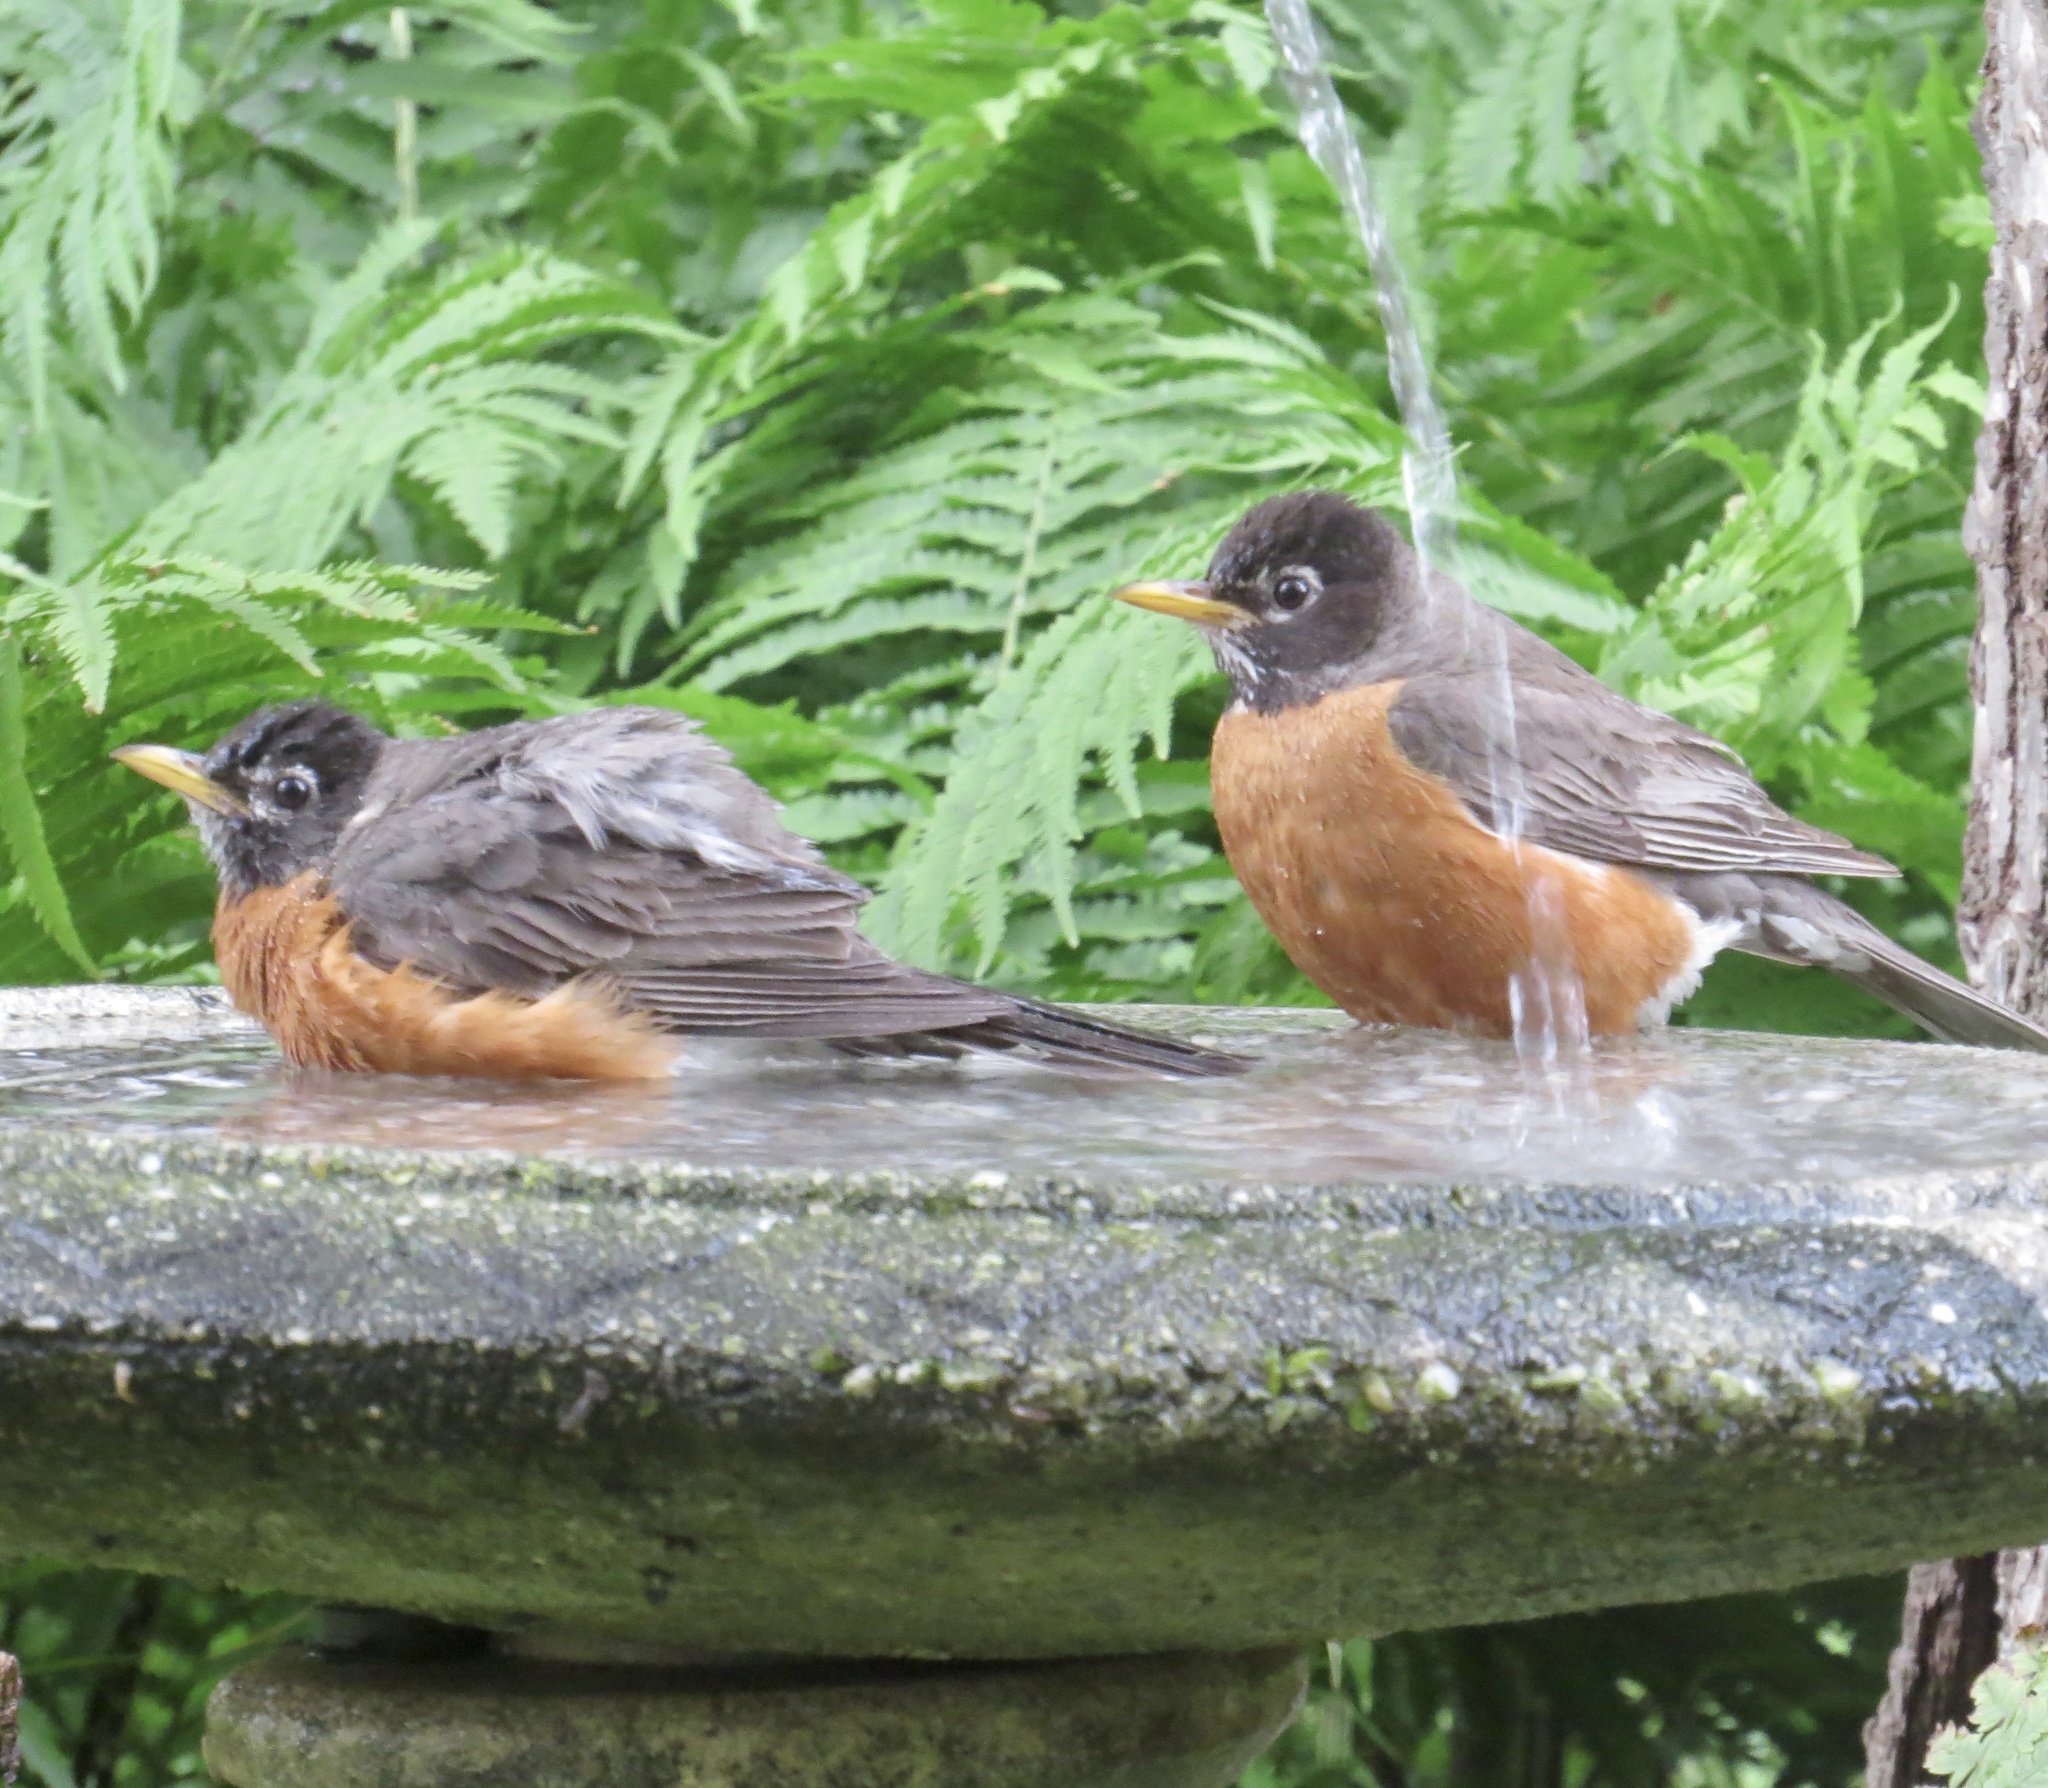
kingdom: Animalia
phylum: Chordata
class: Aves
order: Passeriformes
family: Turdidae
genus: Turdus
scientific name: Turdus migratorius
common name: American robin
